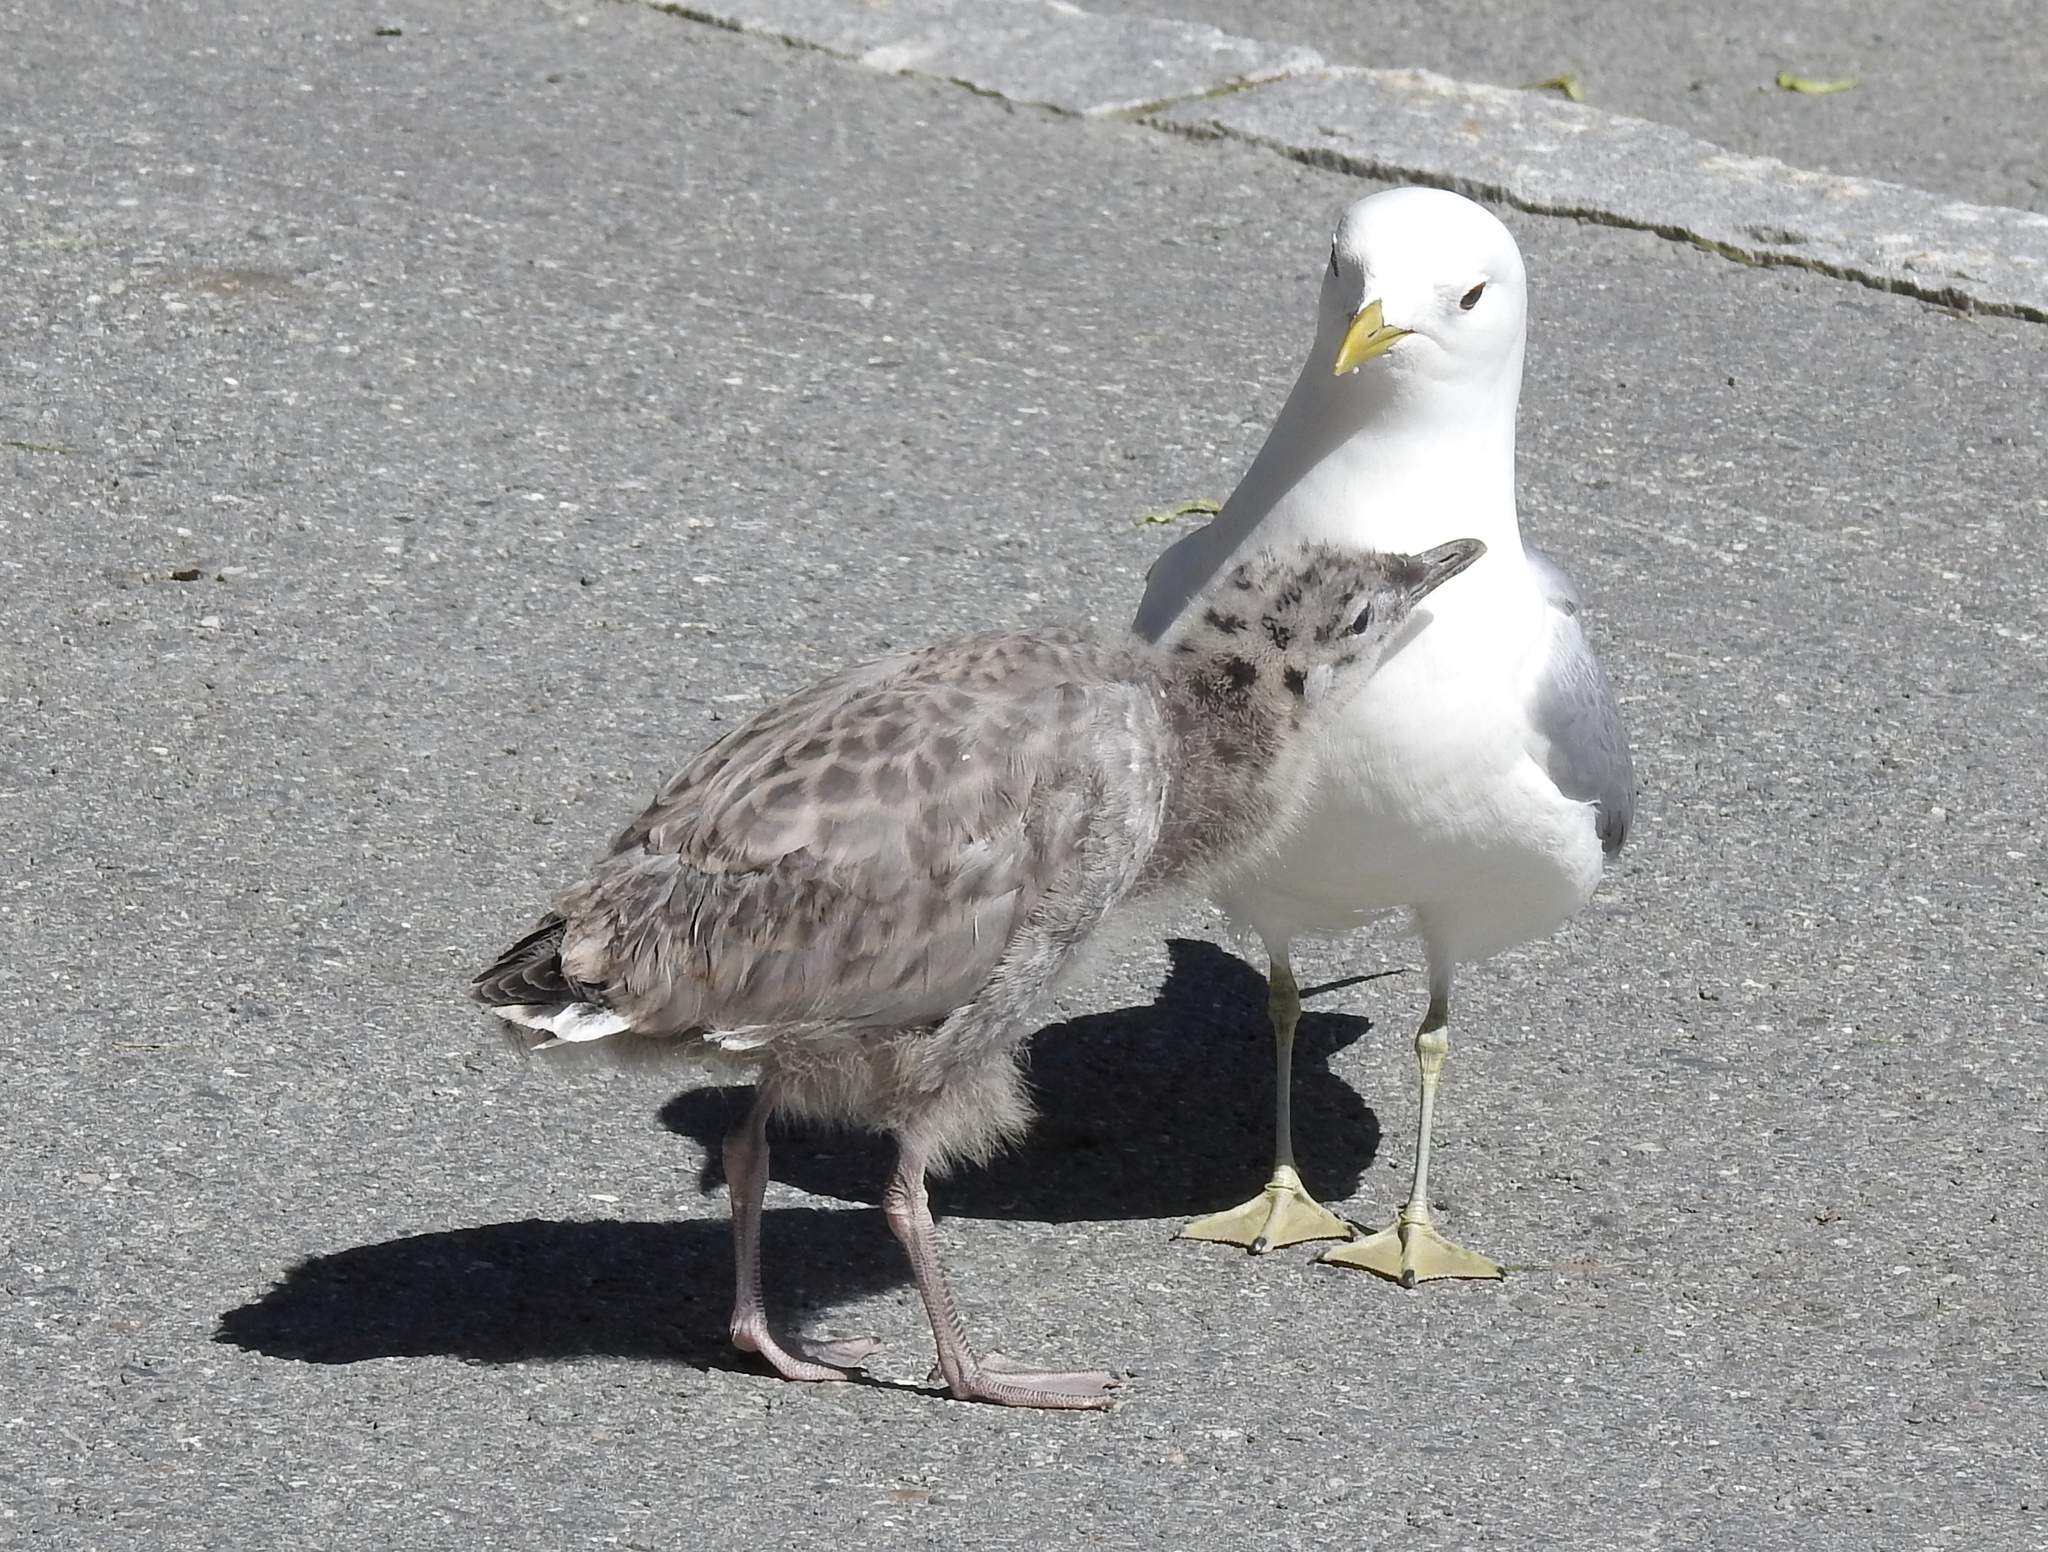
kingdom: Animalia
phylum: Chordata
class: Aves
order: Charadriiformes
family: Laridae
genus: Larus
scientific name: Larus canus
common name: Mew gull
